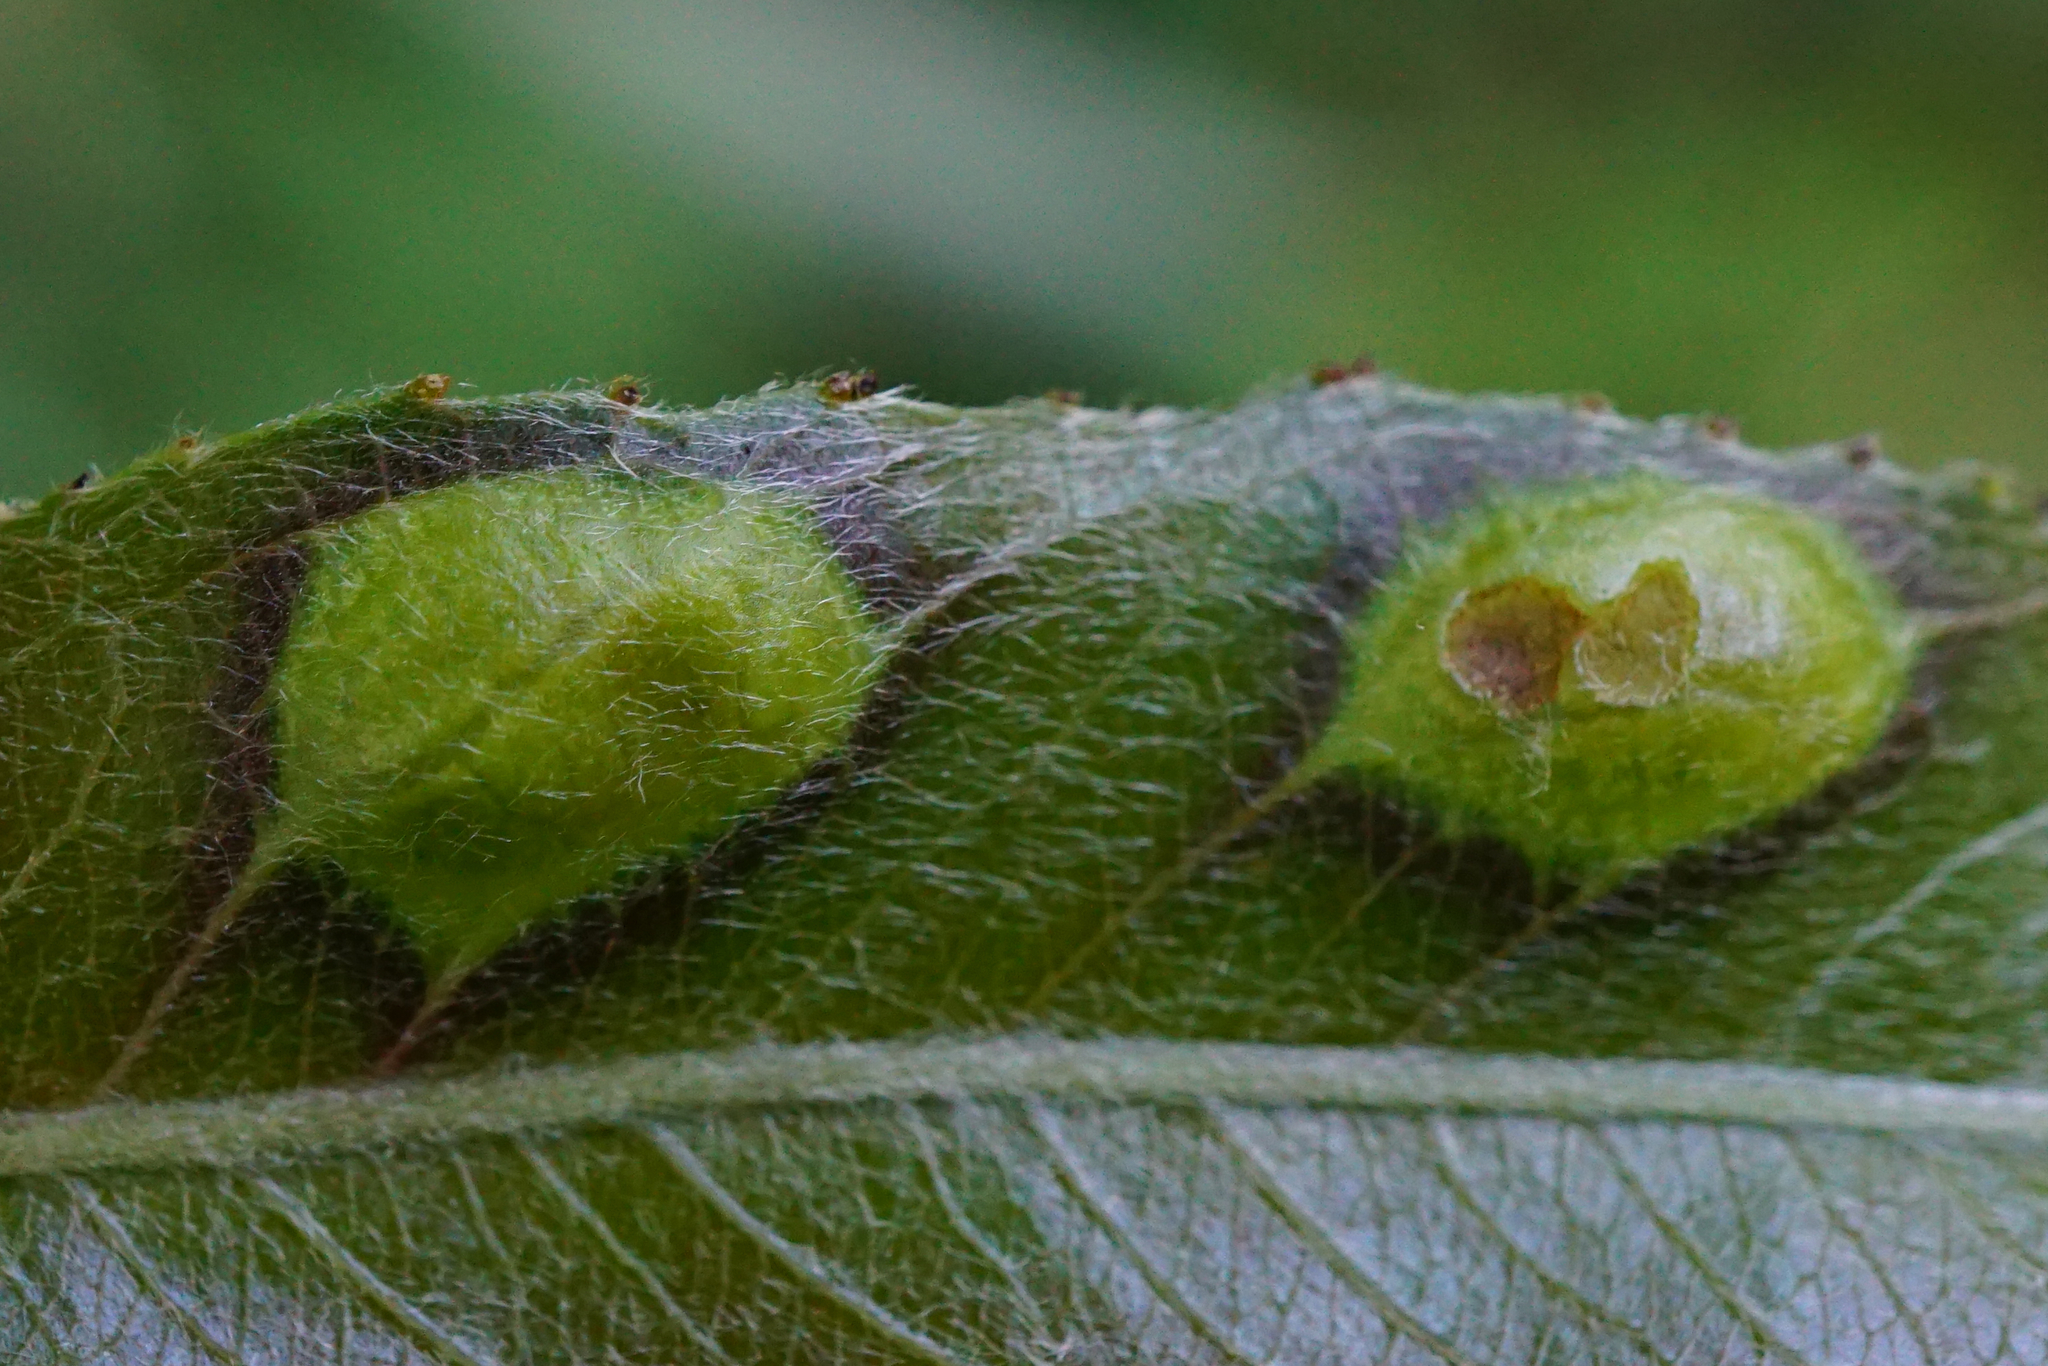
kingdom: Animalia
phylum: Arthropoda
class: Insecta
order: Hymenoptera
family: Tenthredinidae
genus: Pontania
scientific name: Pontania proxima
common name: Common sawfly
